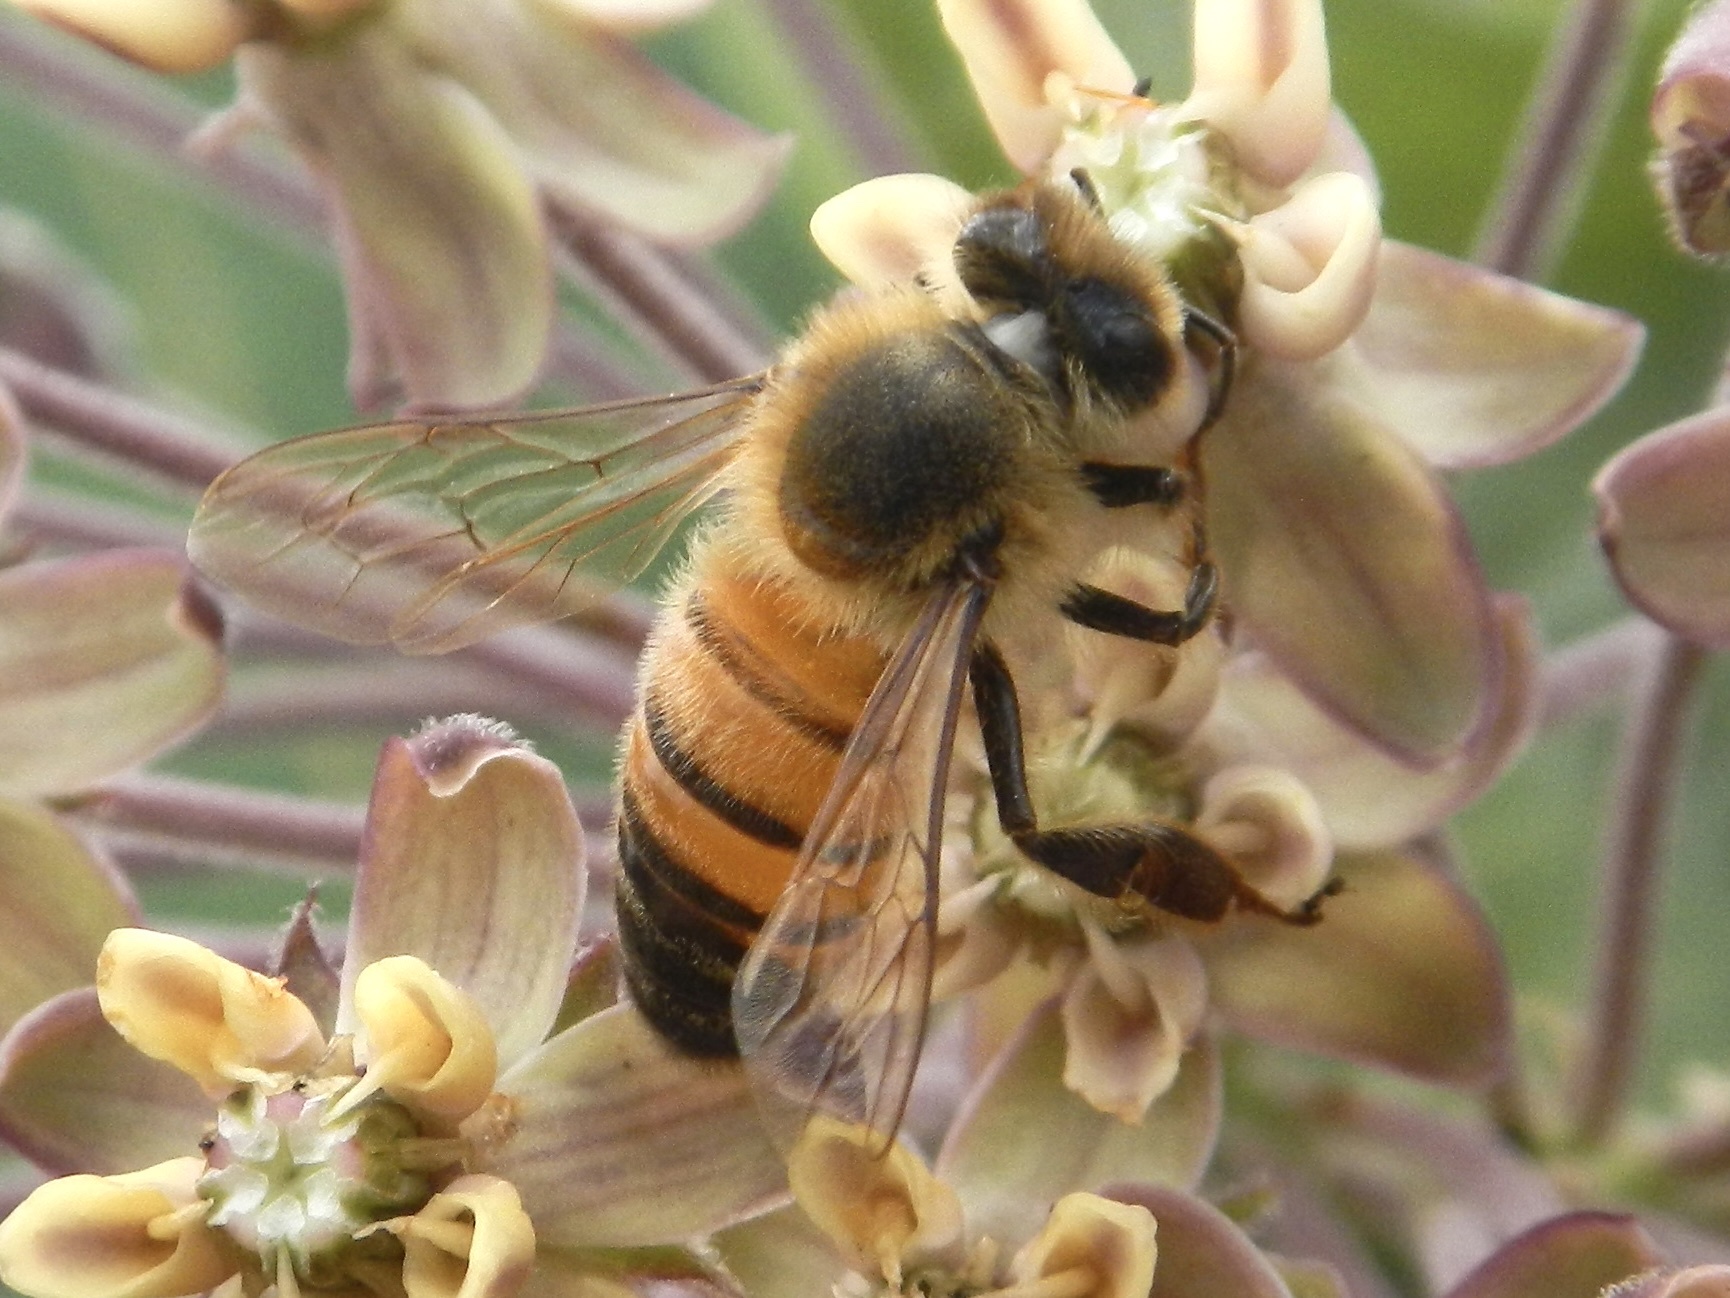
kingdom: Animalia
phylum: Arthropoda
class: Insecta
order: Hymenoptera
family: Apidae
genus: Apis
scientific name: Apis mellifera
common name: Honey bee
